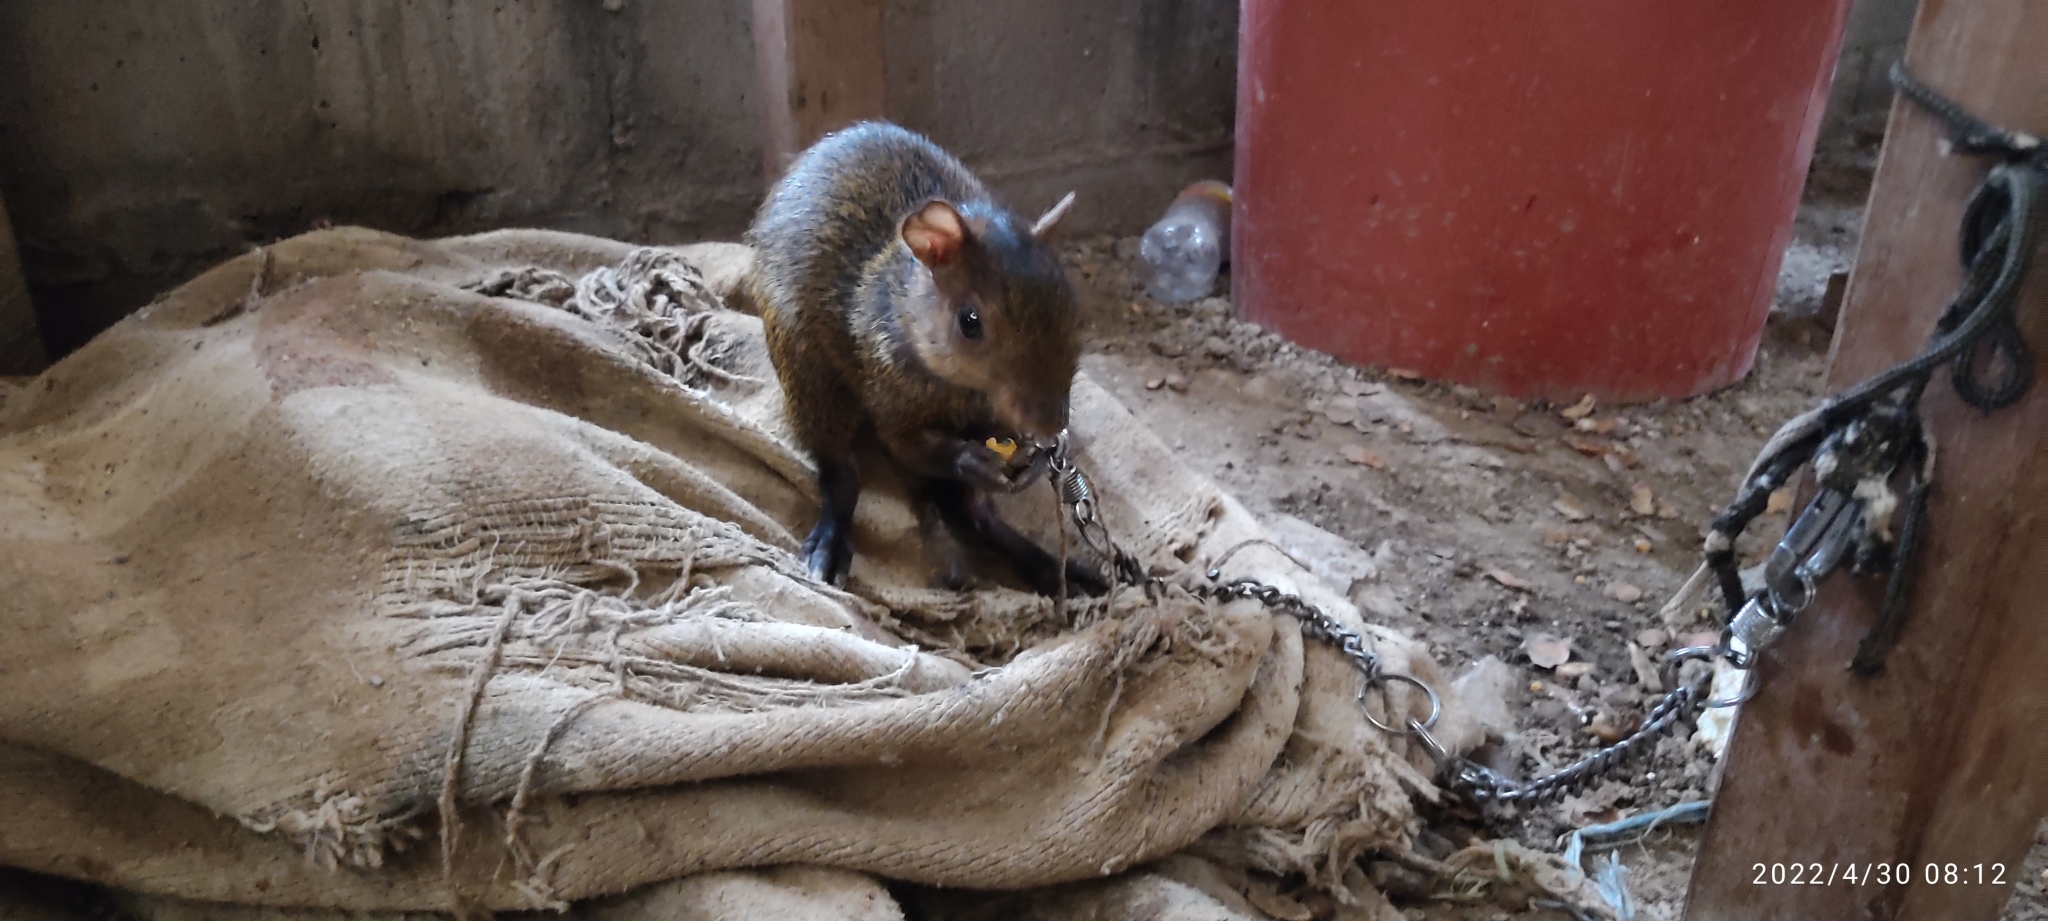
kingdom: Animalia
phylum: Chordata
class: Mammalia
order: Rodentia
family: Dasyproctidae
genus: Dasyprocta
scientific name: Dasyprocta variegata
